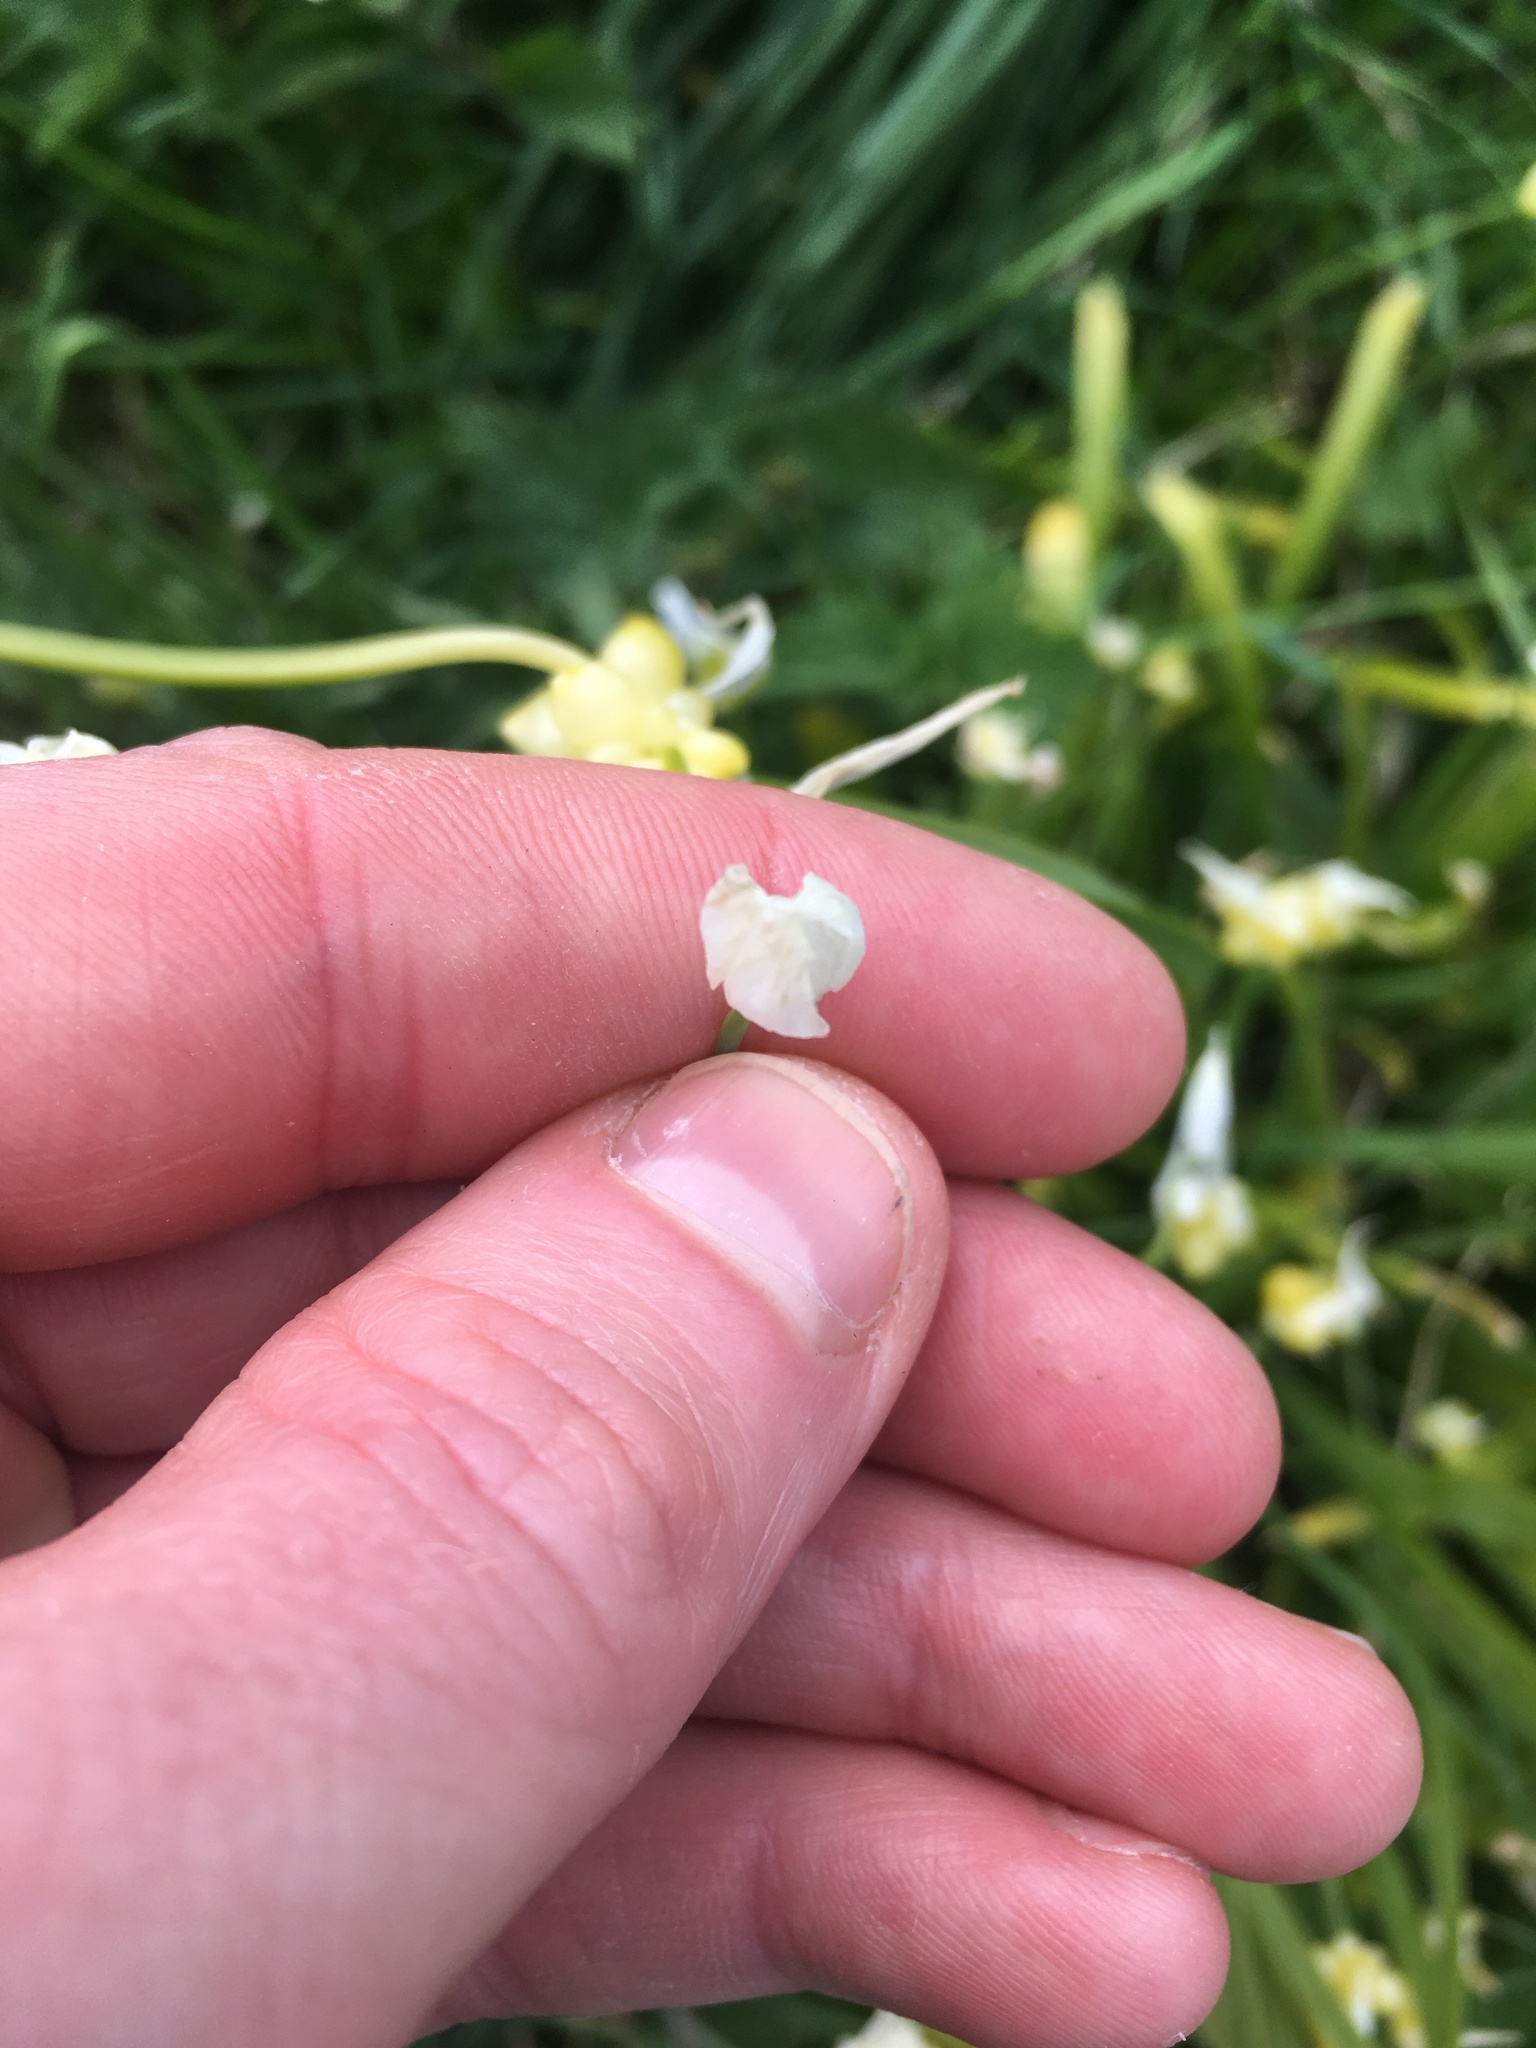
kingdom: Plantae
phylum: Tracheophyta
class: Liliopsida
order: Asparagales
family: Amaryllidaceae
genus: Allium
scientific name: Allium paradoxum
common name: Few-flowered garlic
